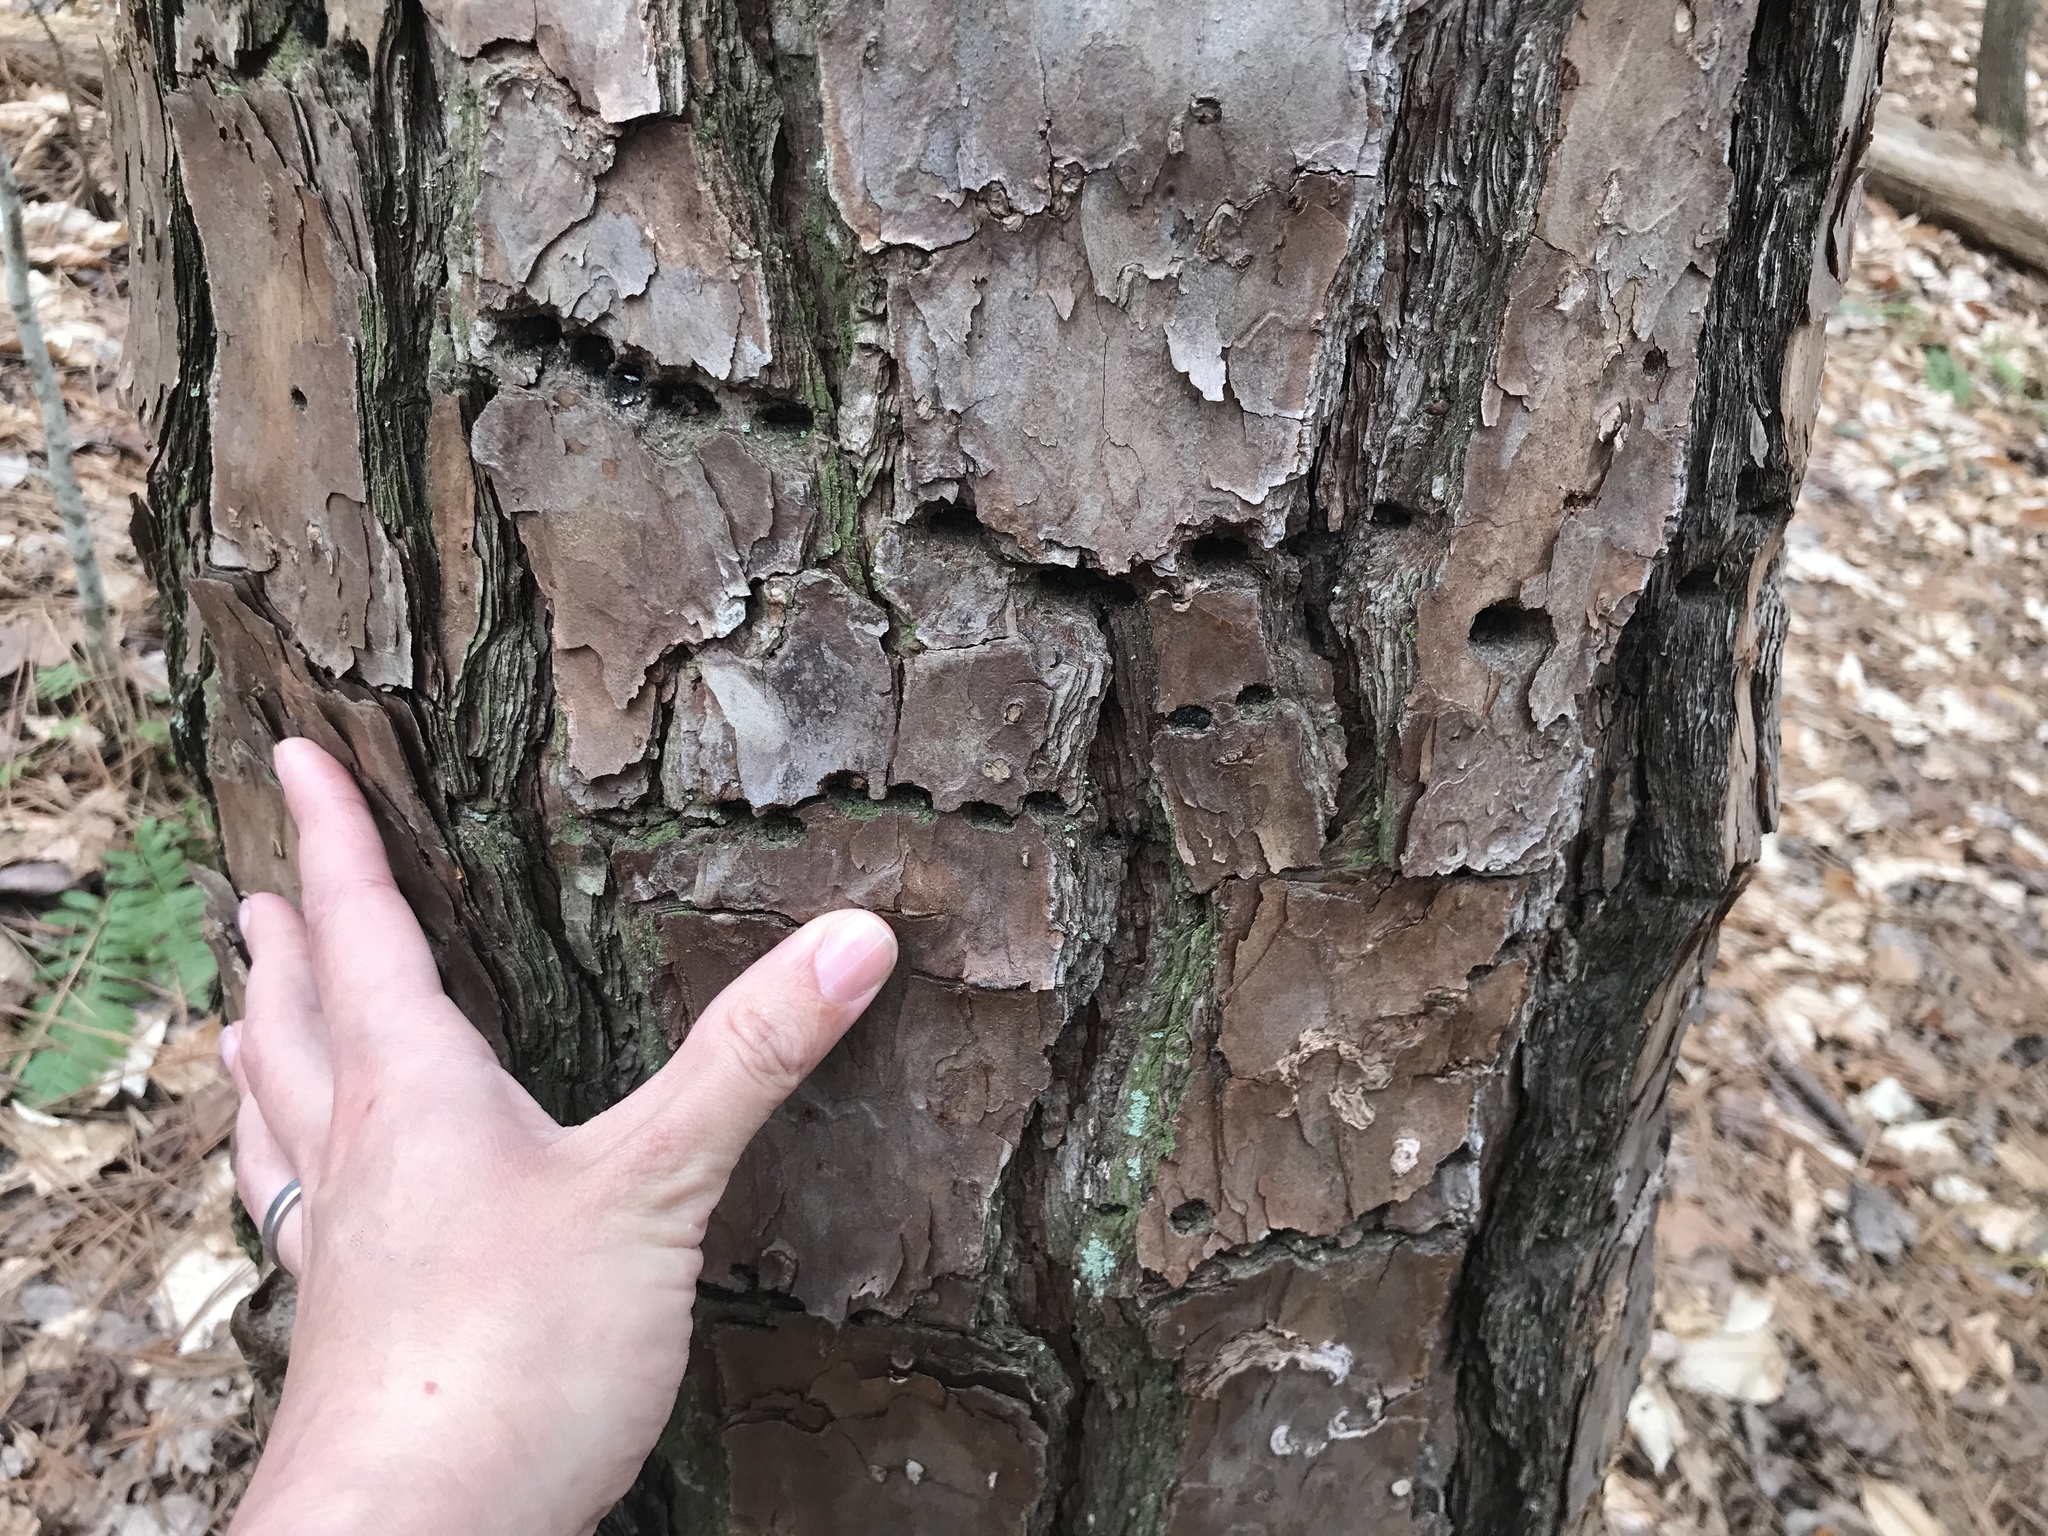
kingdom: Animalia
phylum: Chordata
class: Aves
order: Piciformes
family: Picidae
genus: Sphyrapicus
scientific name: Sphyrapicus varius
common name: Yellow-bellied sapsucker
